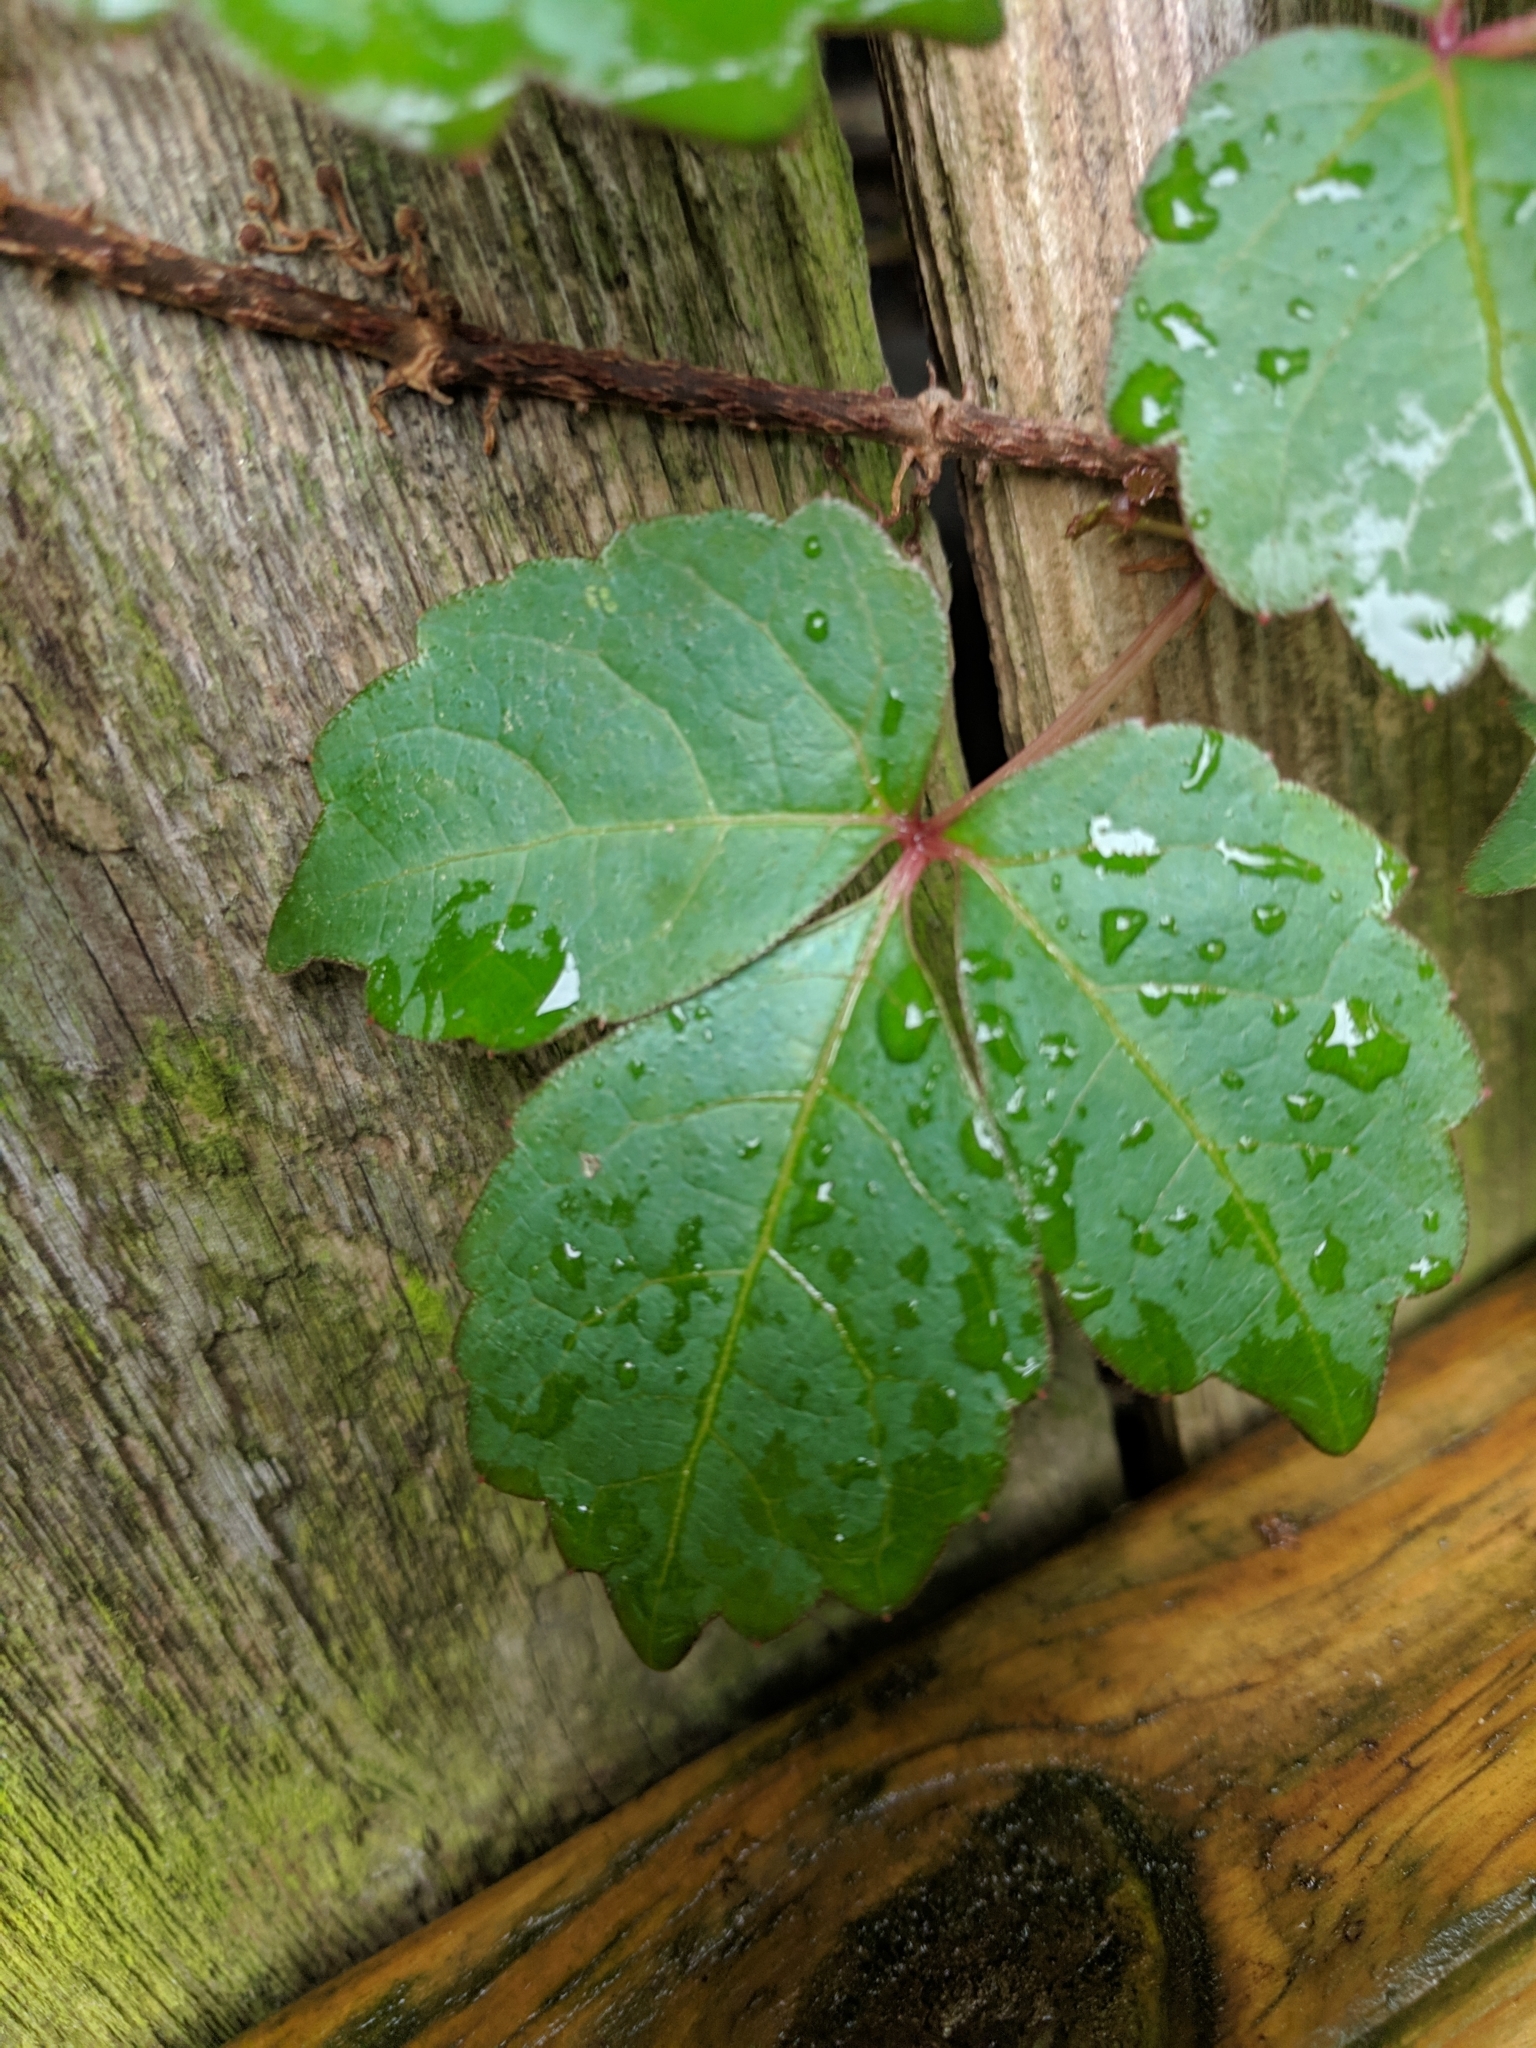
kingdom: Plantae
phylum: Tracheophyta
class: Magnoliopsida
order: Vitales
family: Vitaceae
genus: Parthenocissus
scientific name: Parthenocissus tricuspidata
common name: Boston ivy
